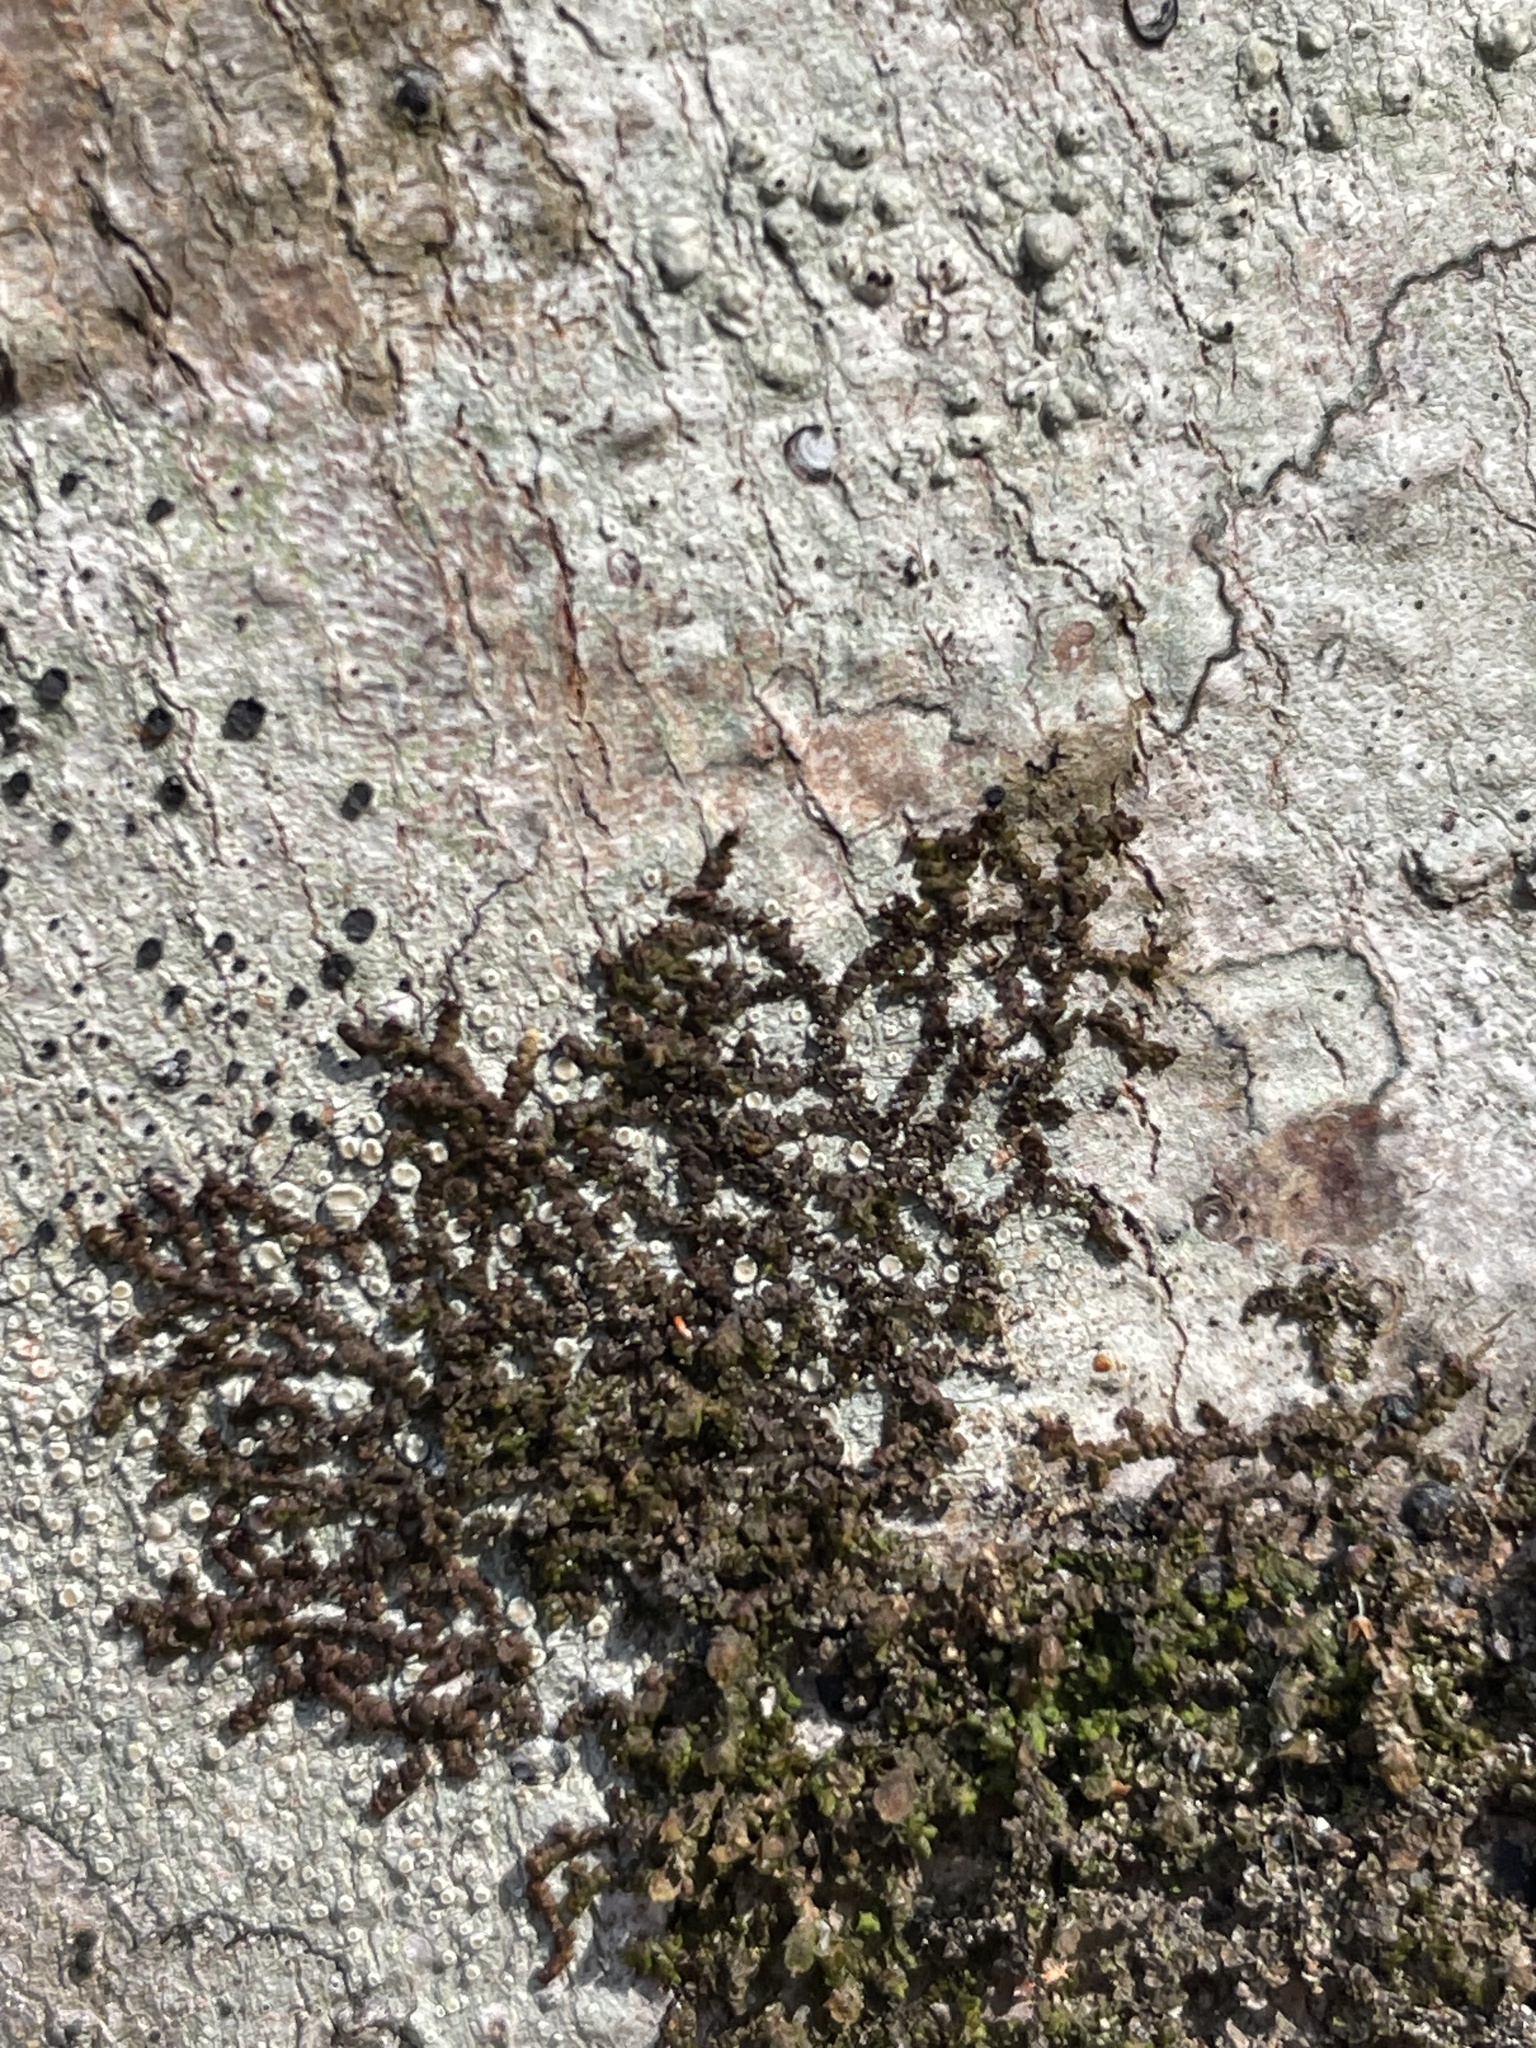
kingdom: Plantae
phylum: Marchantiophyta
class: Jungermanniopsida
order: Porellales
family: Frullaniaceae
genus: Frullania
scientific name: Frullania eboracensis
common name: New york scalewort
